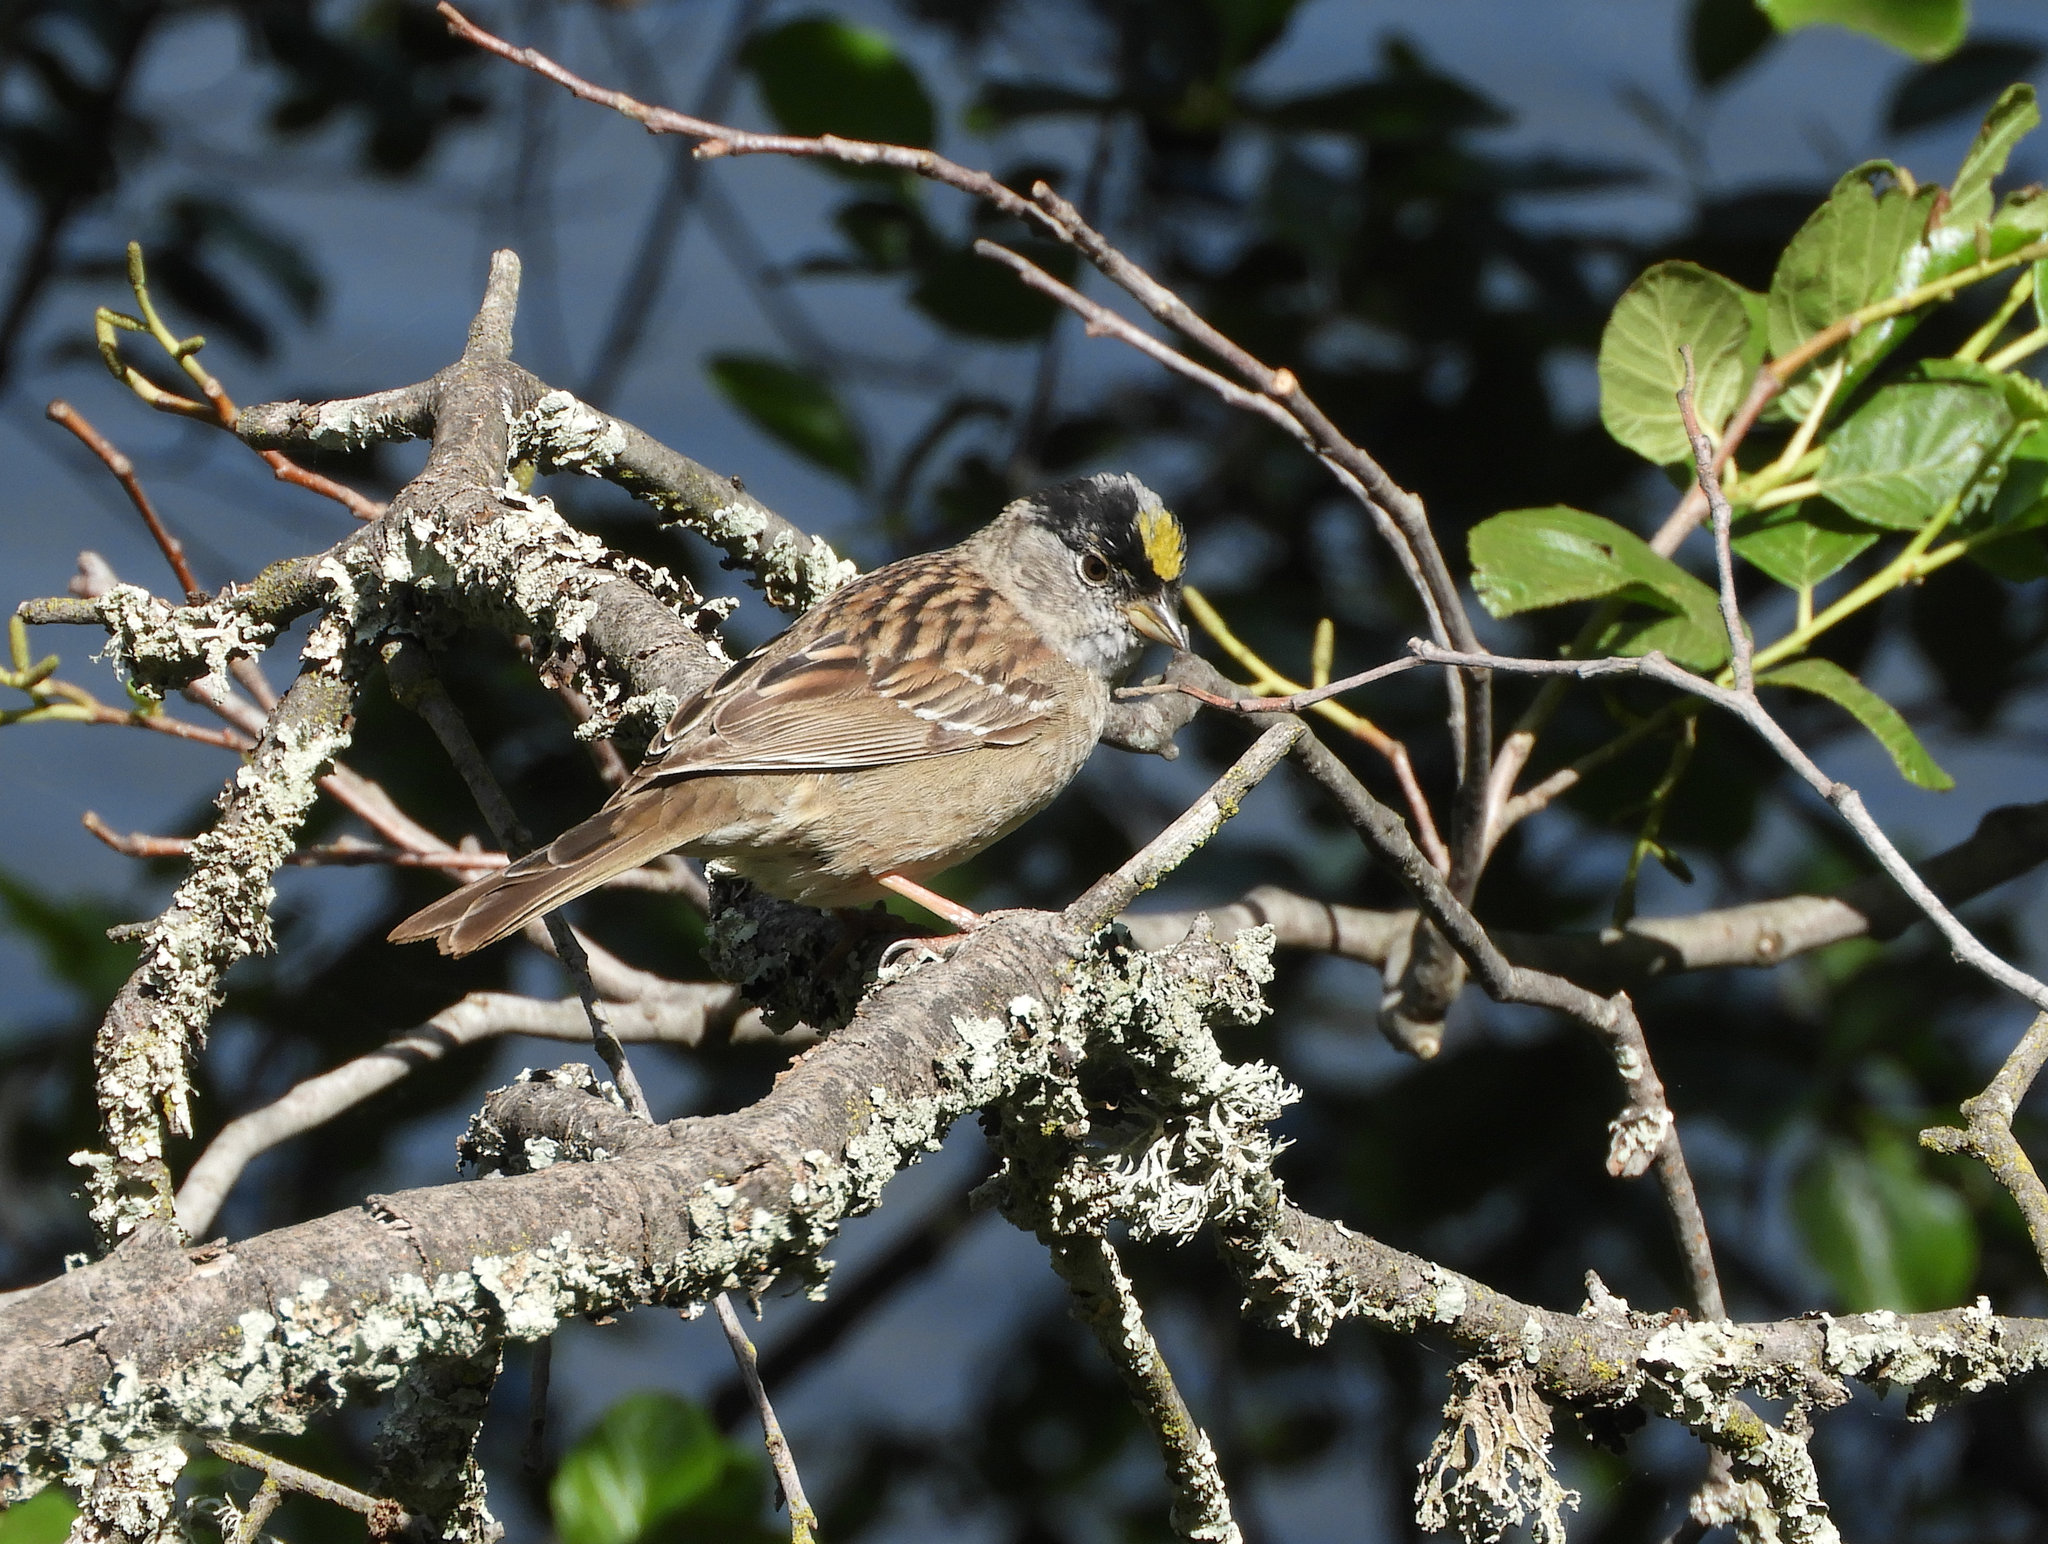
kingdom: Animalia
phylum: Chordata
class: Aves
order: Passeriformes
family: Passerellidae
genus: Zonotrichia
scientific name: Zonotrichia atricapilla
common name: Golden-crowned sparrow
